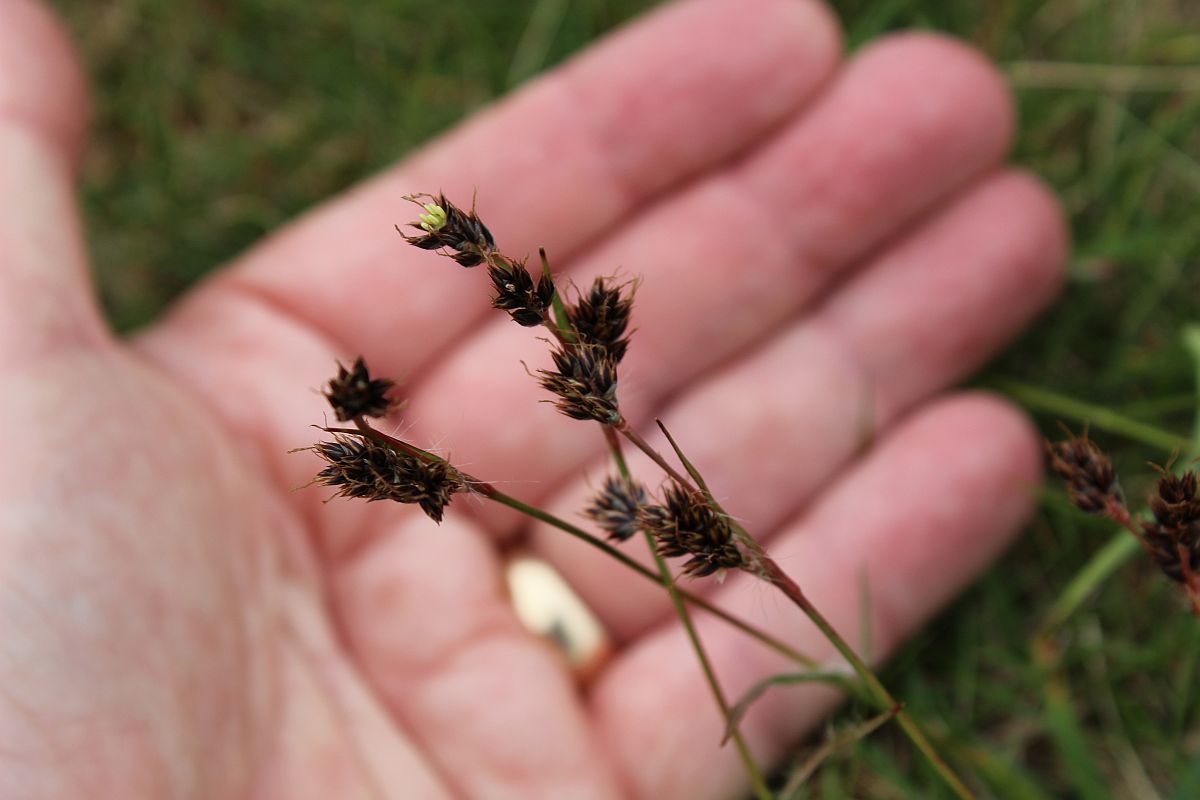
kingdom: Plantae
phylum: Tracheophyta
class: Liliopsida
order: Poales
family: Juncaceae
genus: Luzula
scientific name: Luzula campestris
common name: Field wood-rush
